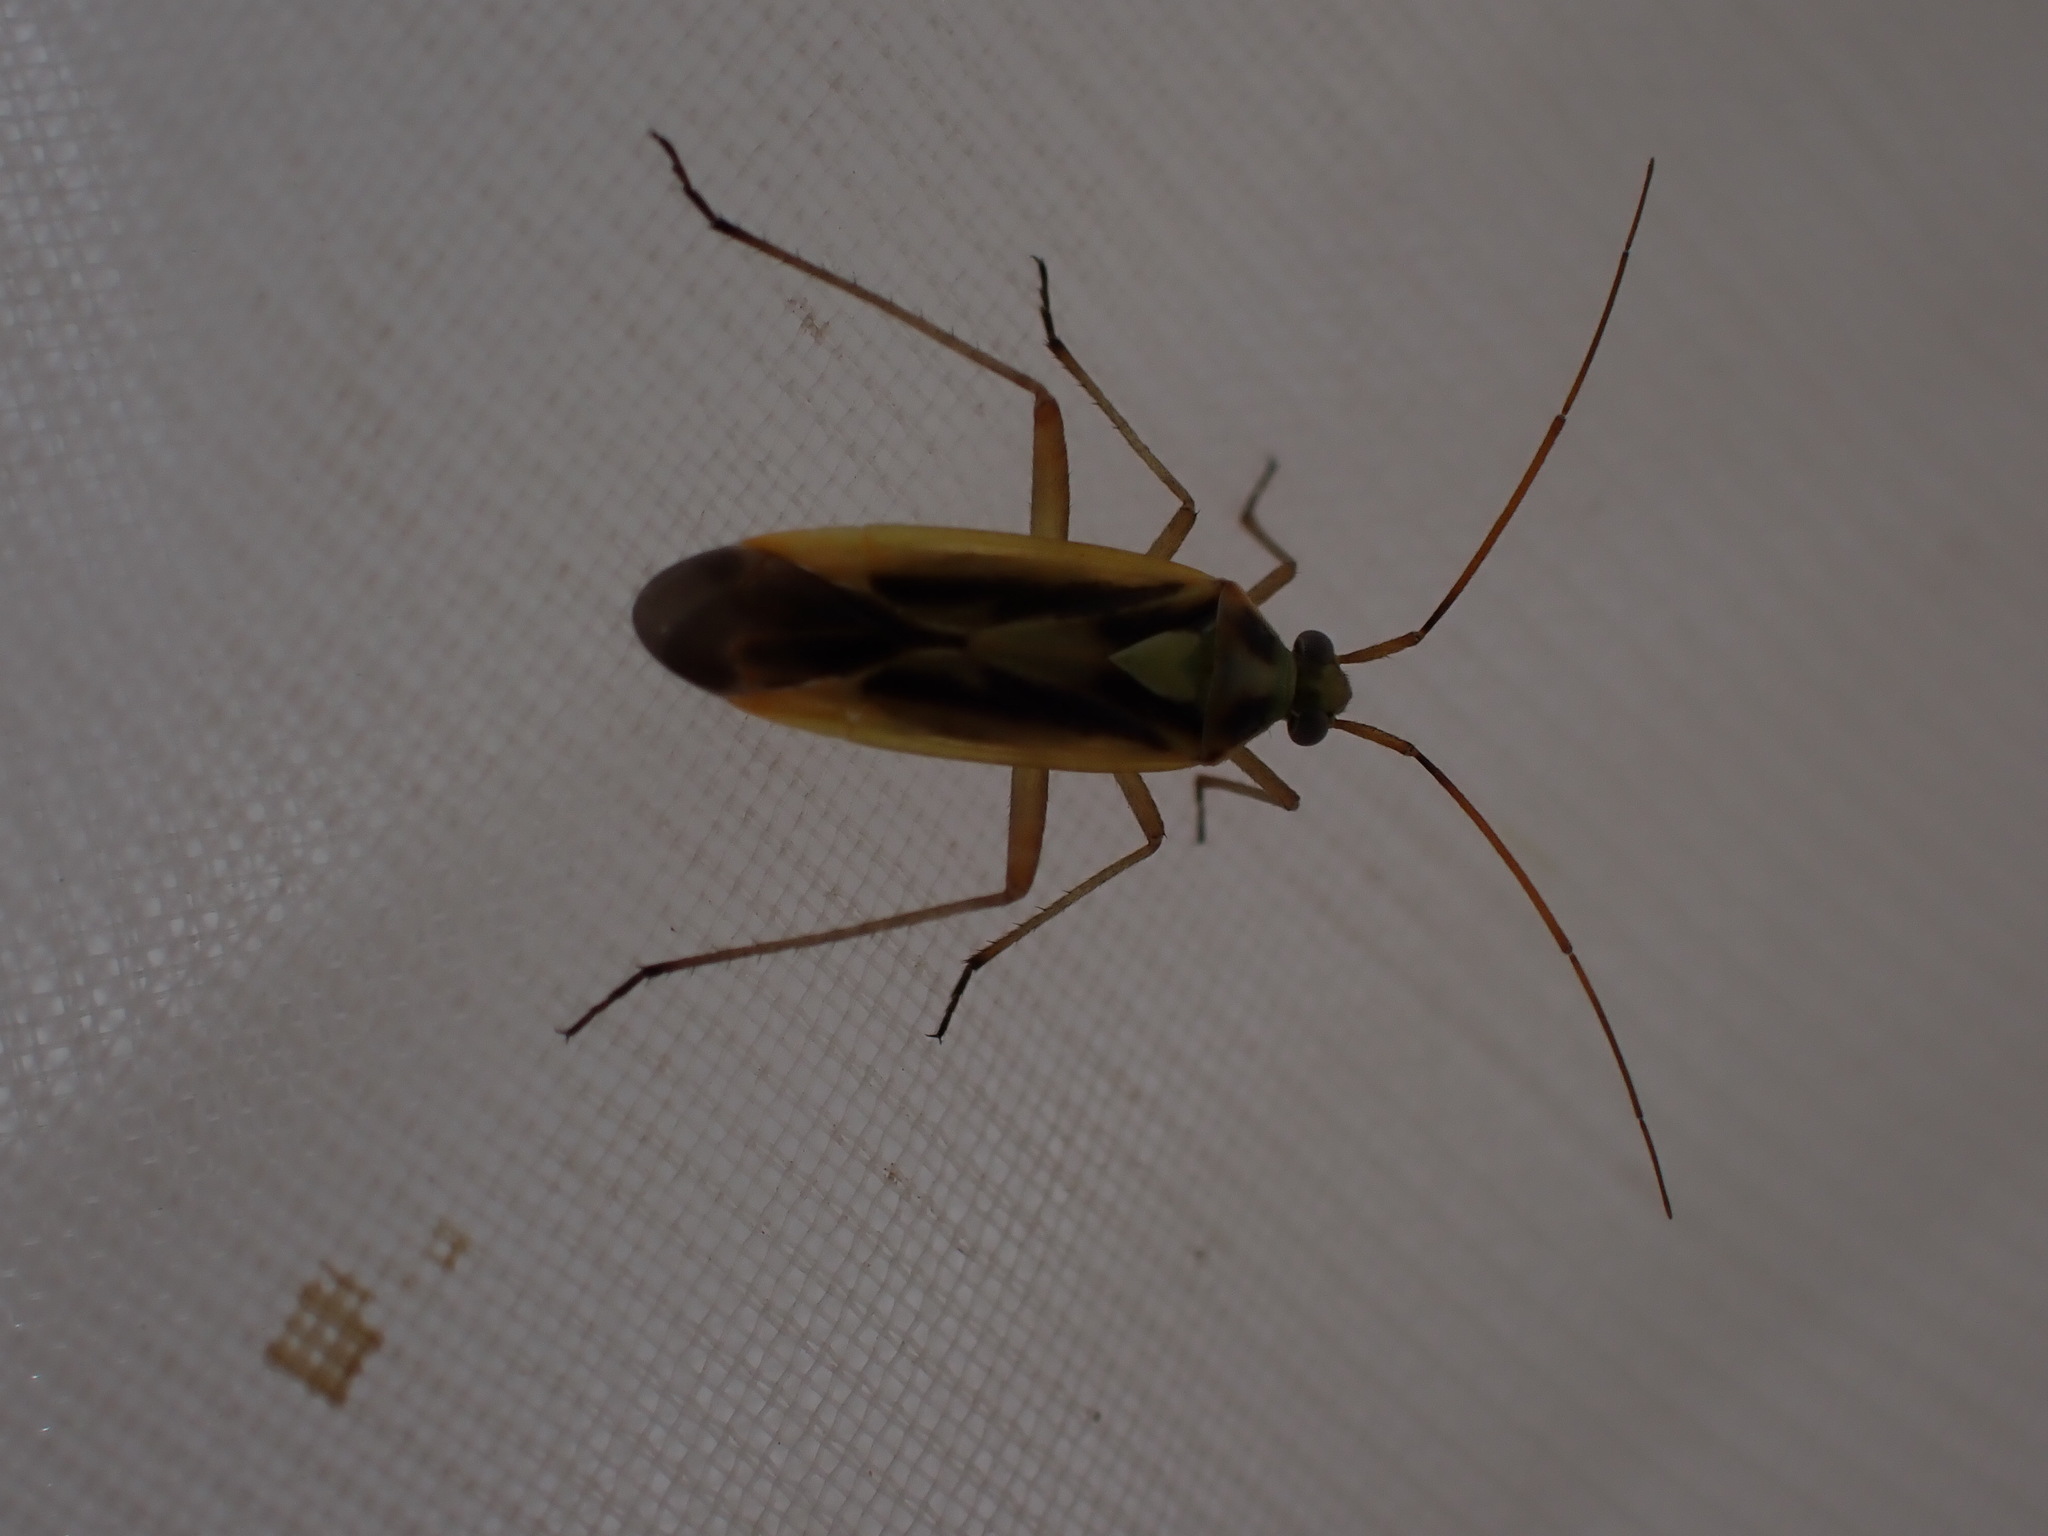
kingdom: Animalia
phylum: Arthropoda
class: Insecta
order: Hemiptera
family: Miridae
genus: Stenotus
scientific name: Stenotus binotatus
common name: Plant bug
